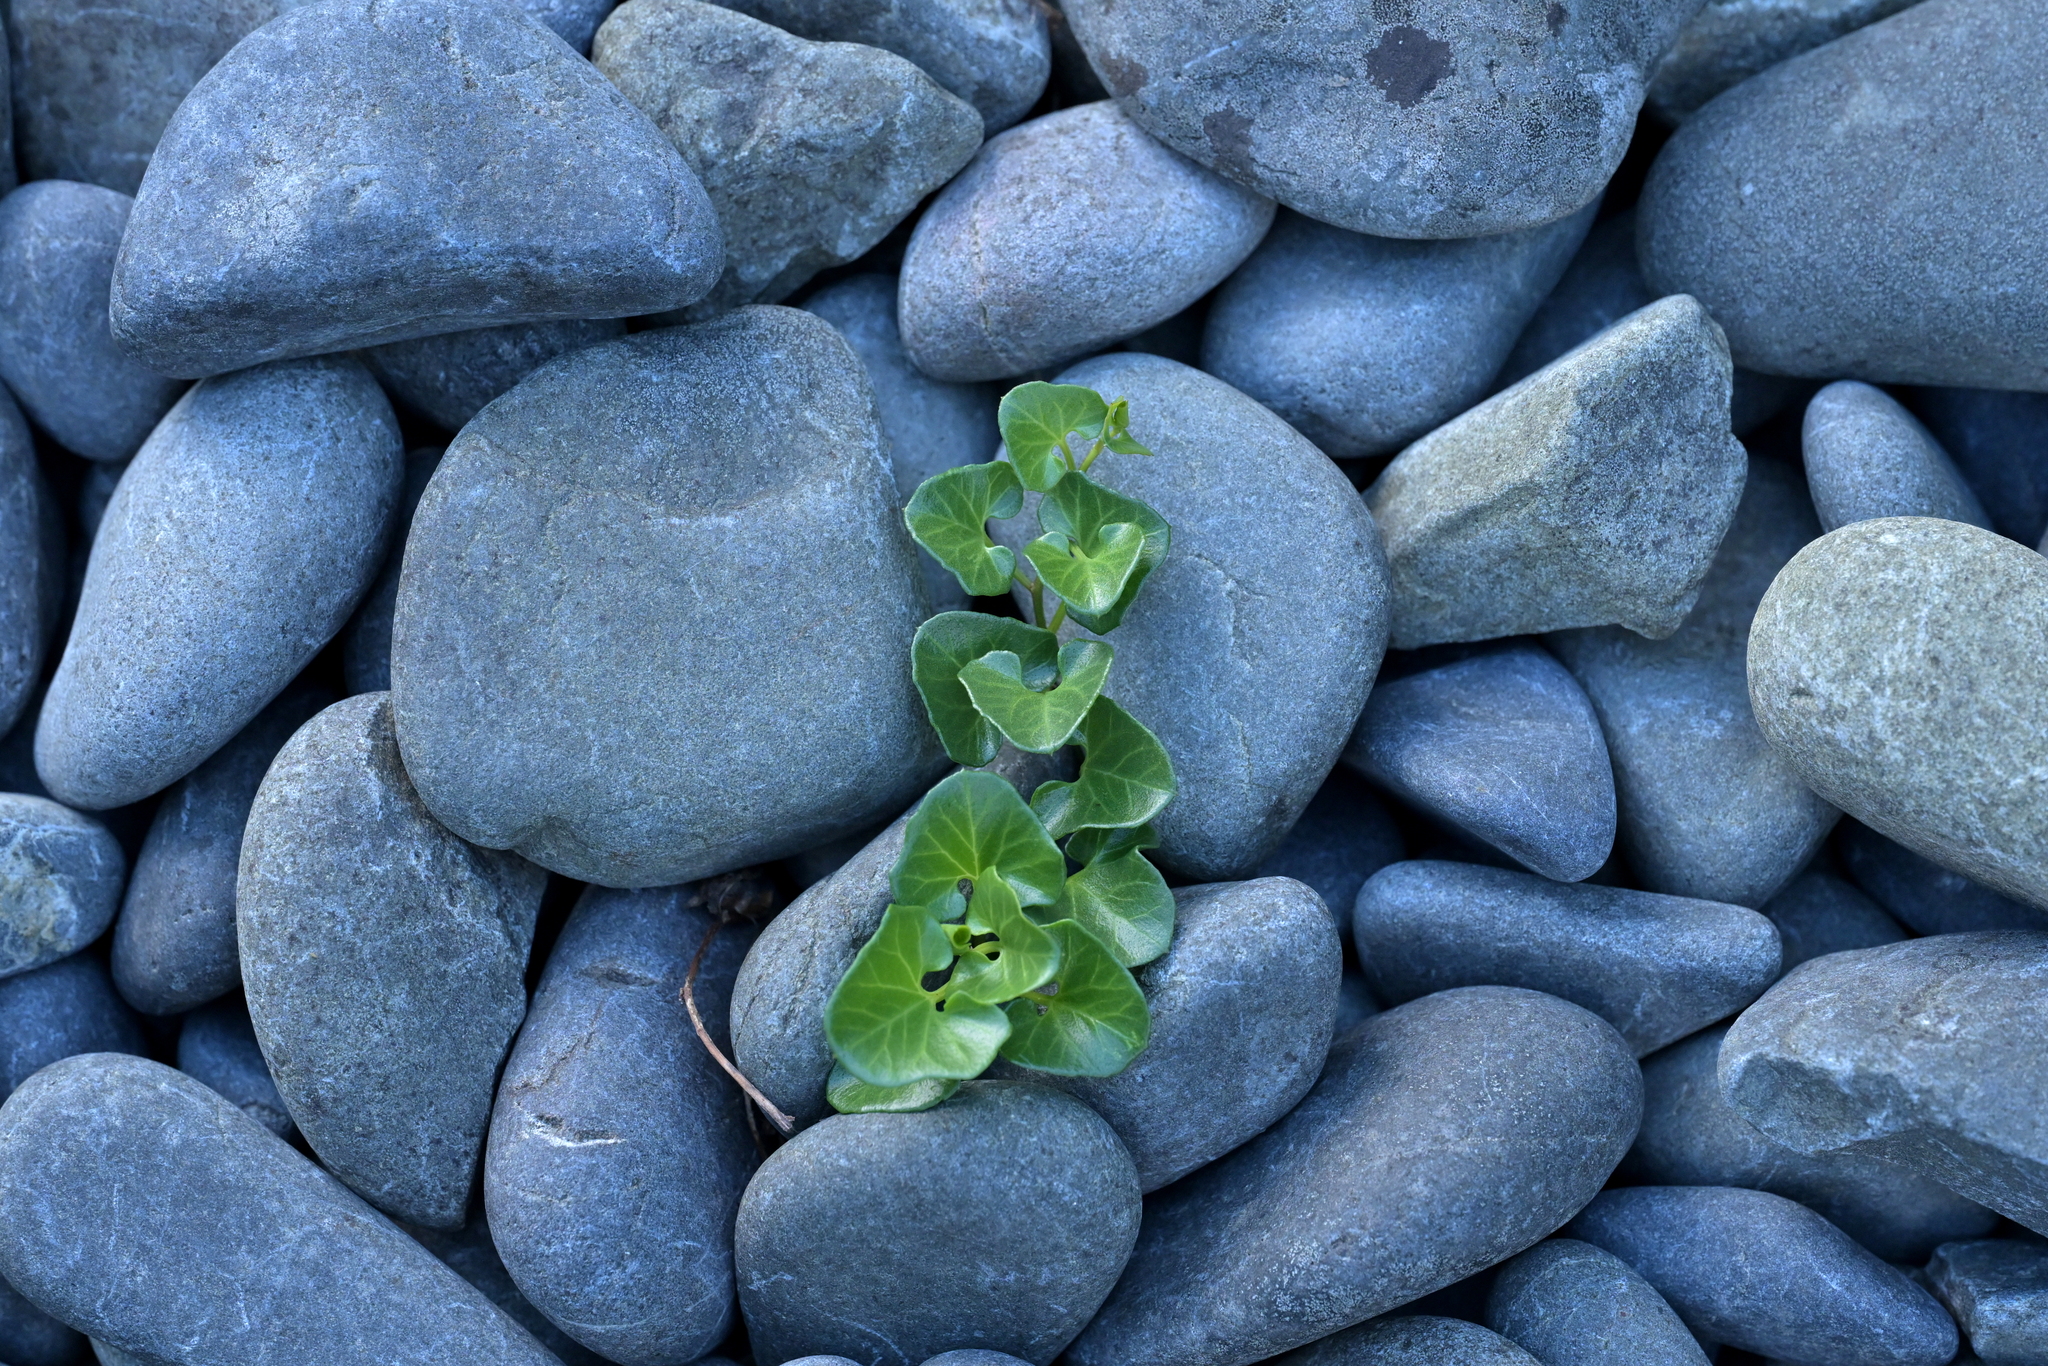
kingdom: Plantae
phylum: Tracheophyta
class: Magnoliopsida
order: Solanales
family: Convolvulaceae
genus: Calystegia
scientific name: Calystegia soldanella
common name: Sea bindweed
